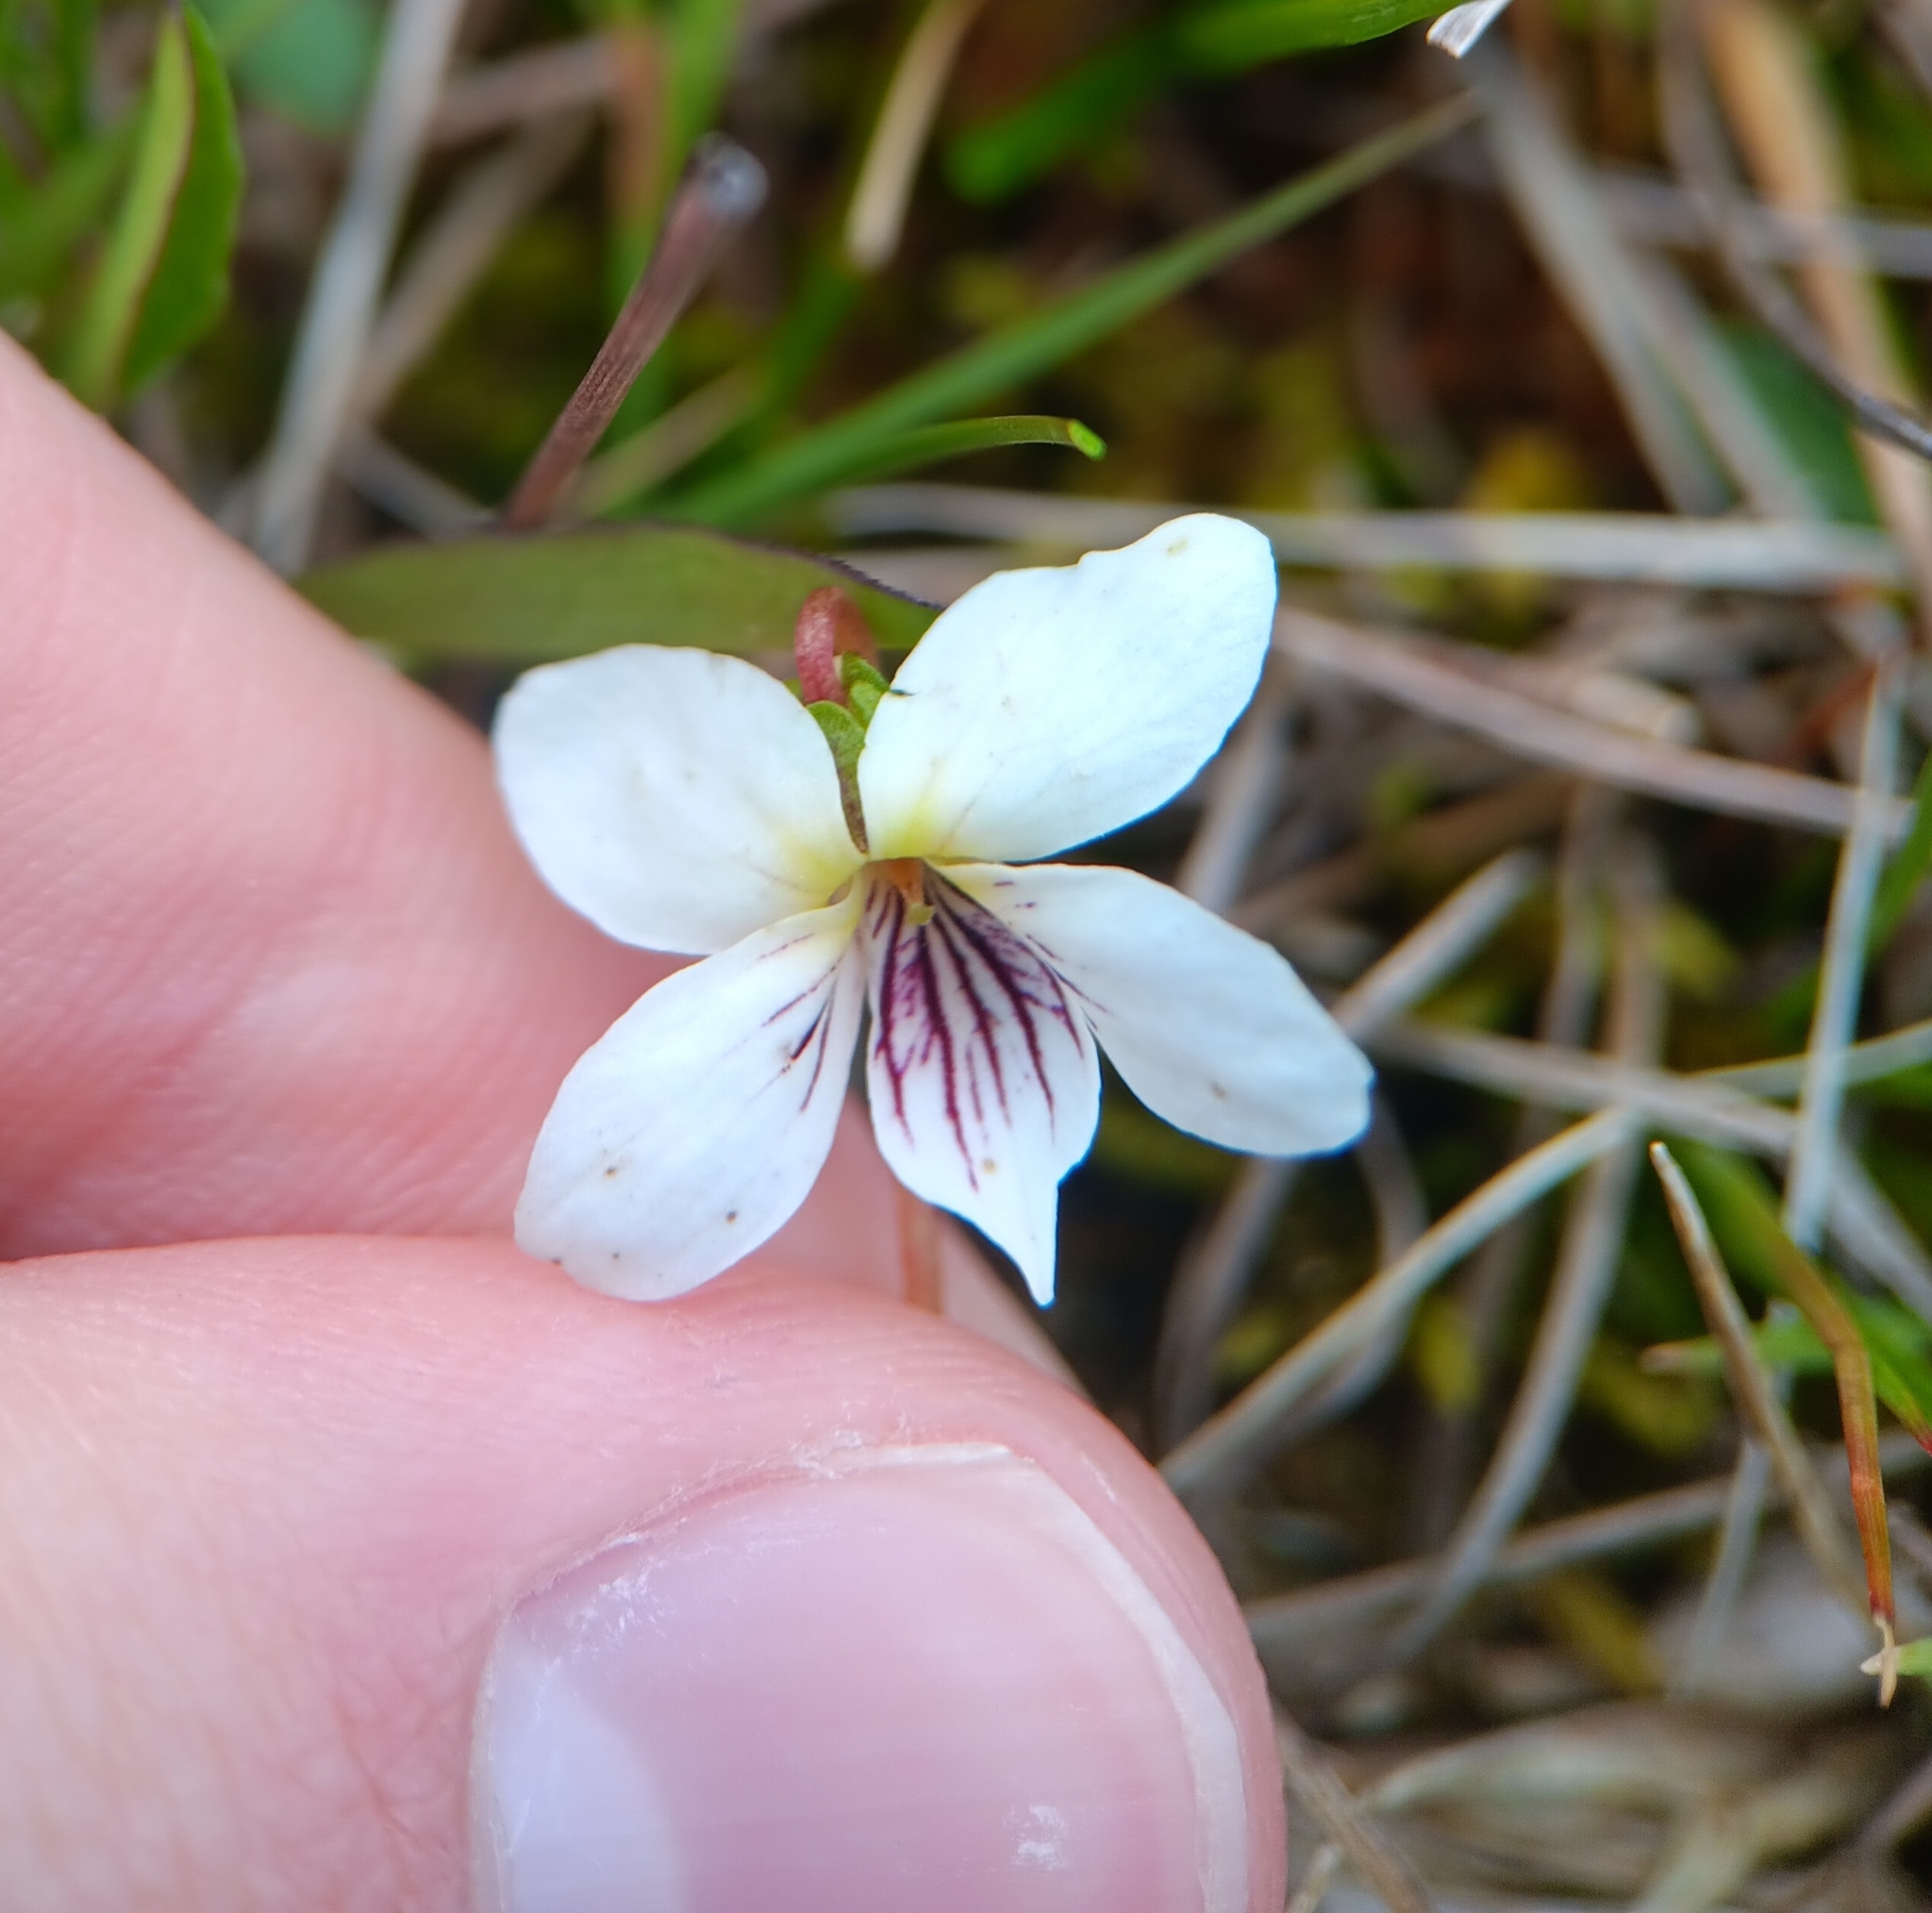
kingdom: Plantae
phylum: Tracheophyta
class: Magnoliopsida
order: Malpighiales
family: Violaceae
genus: Viola
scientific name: Viola lanceolata
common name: Bog white violet
